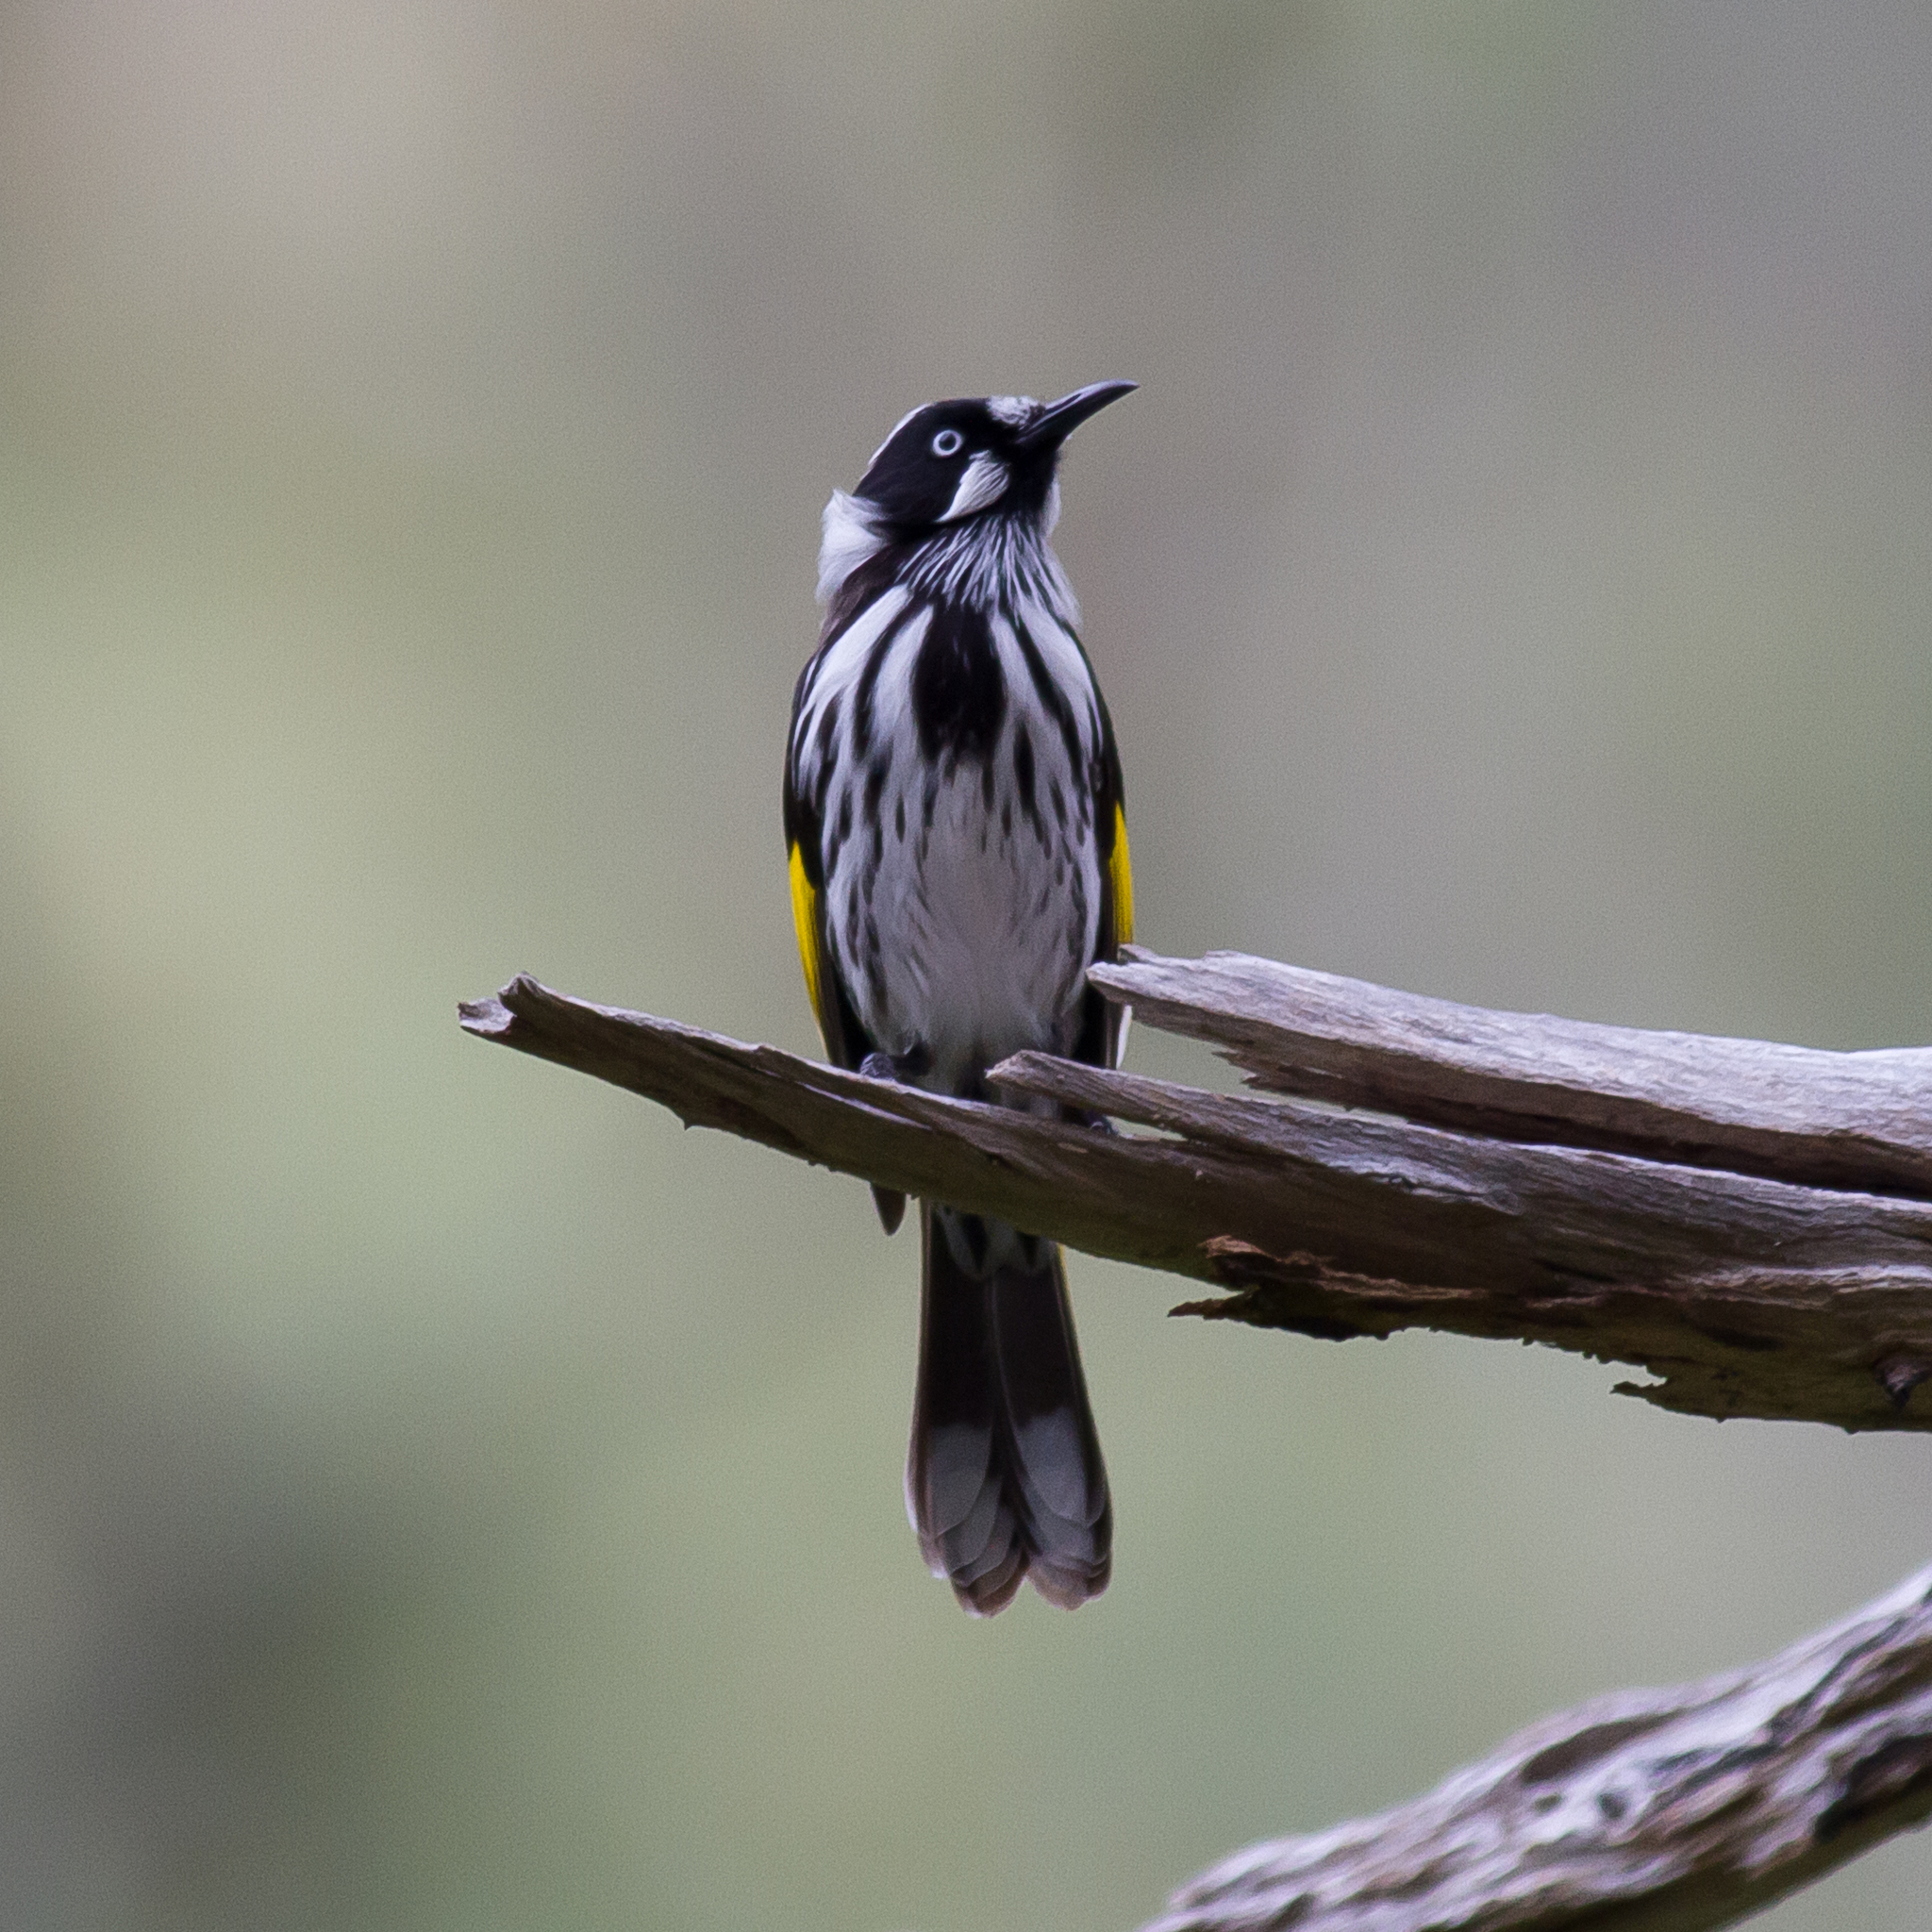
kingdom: Animalia
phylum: Chordata
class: Aves
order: Passeriformes
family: Meliphagidae
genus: Phylidonyris
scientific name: Phylidonyris novaehollandiae
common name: New holland honeyeater
